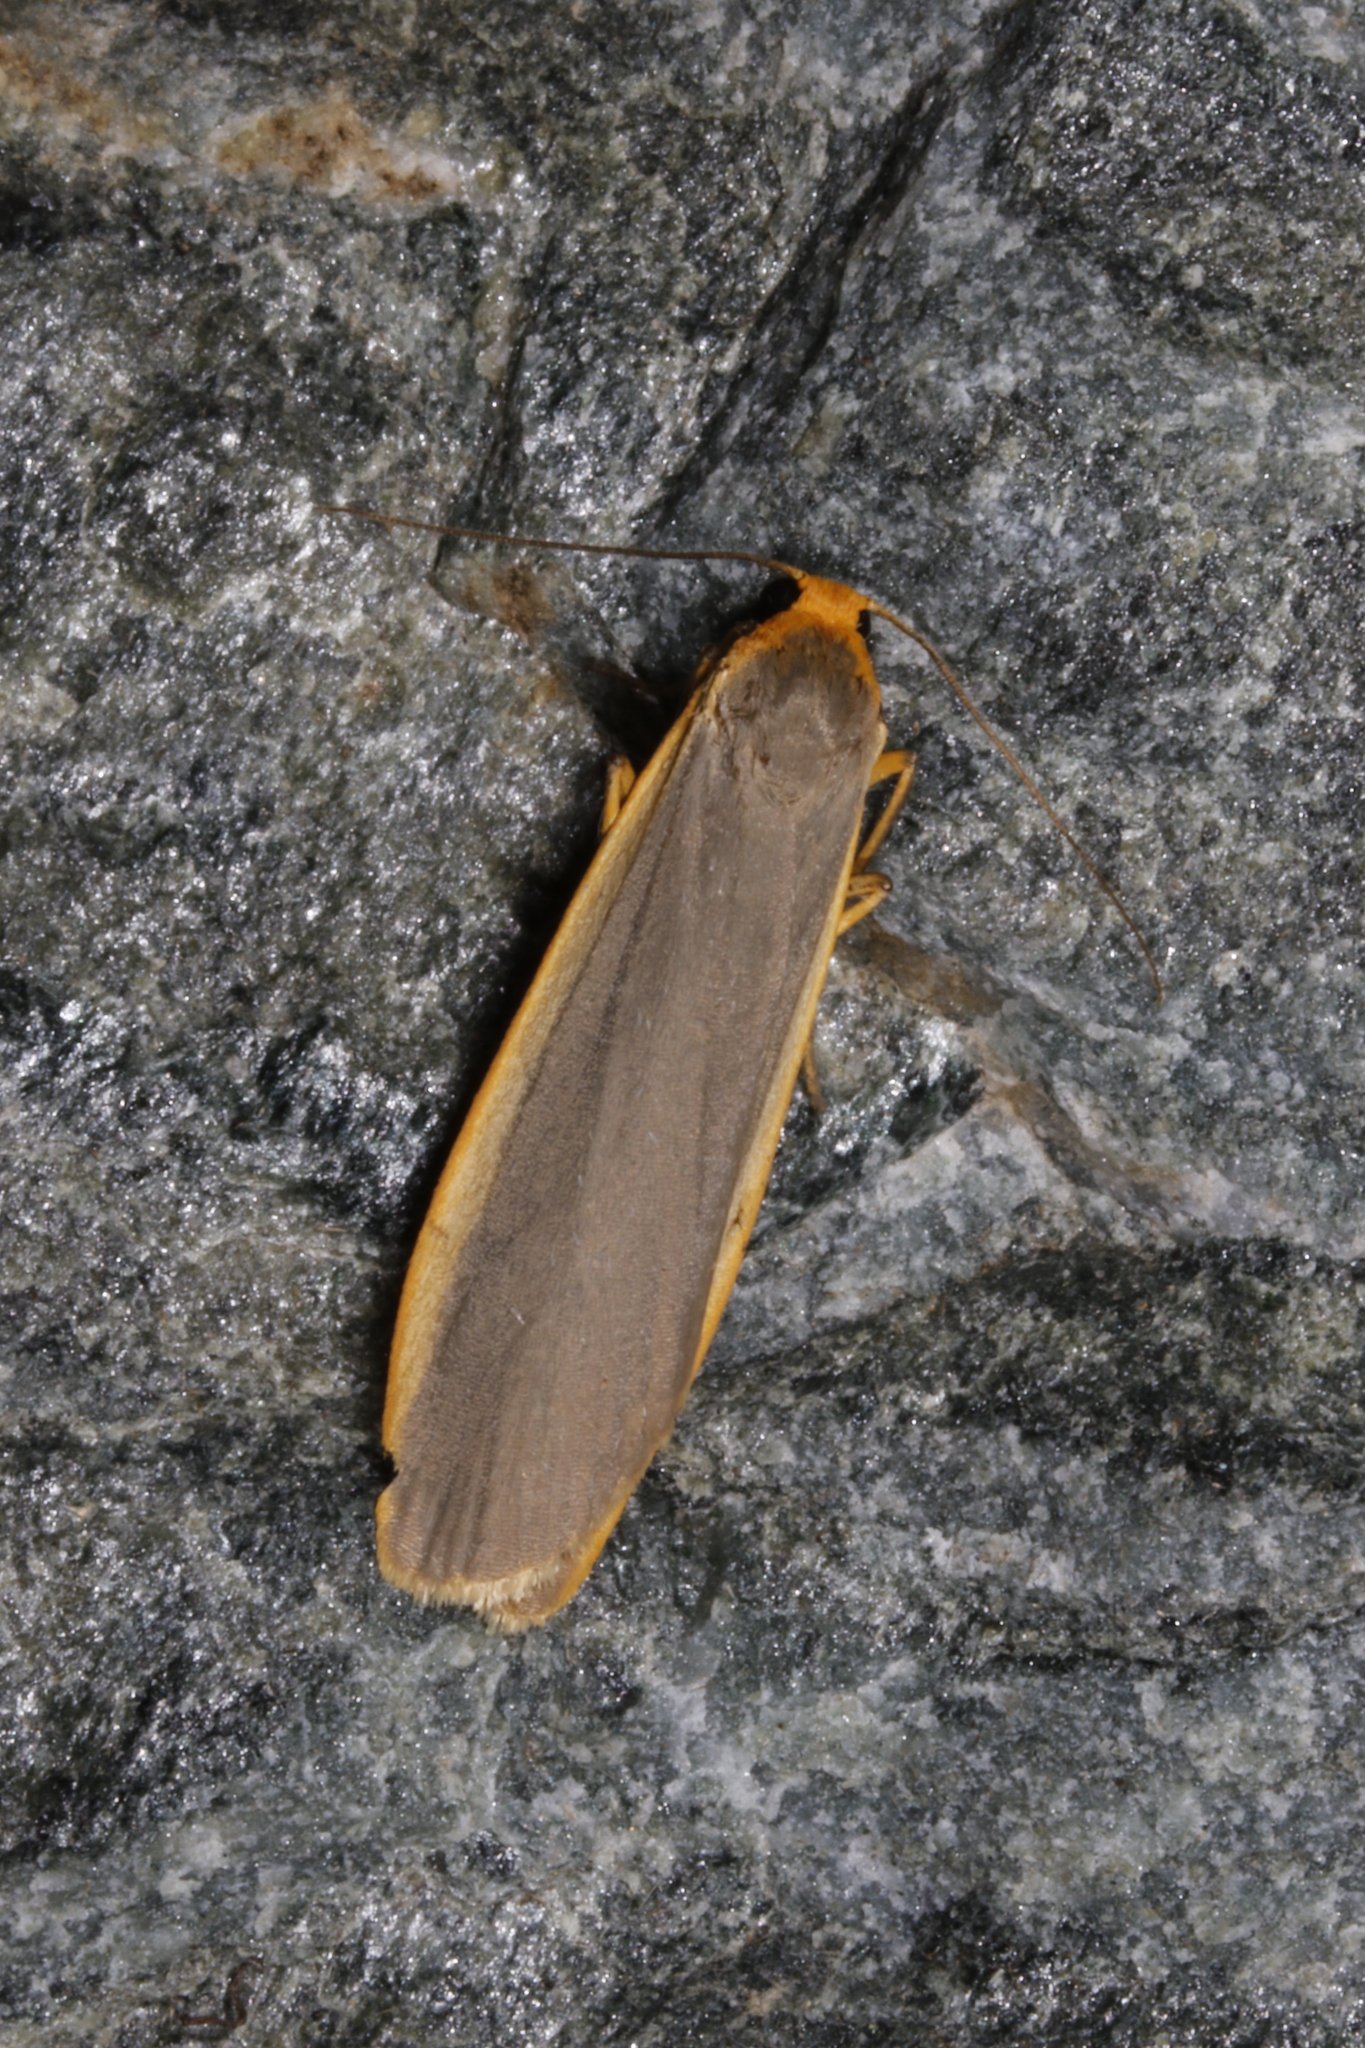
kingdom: Animalia
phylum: Arthropoda
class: Insecta
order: Lepidoptera
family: Erebidae
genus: Nyea
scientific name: Nyea lurideola
